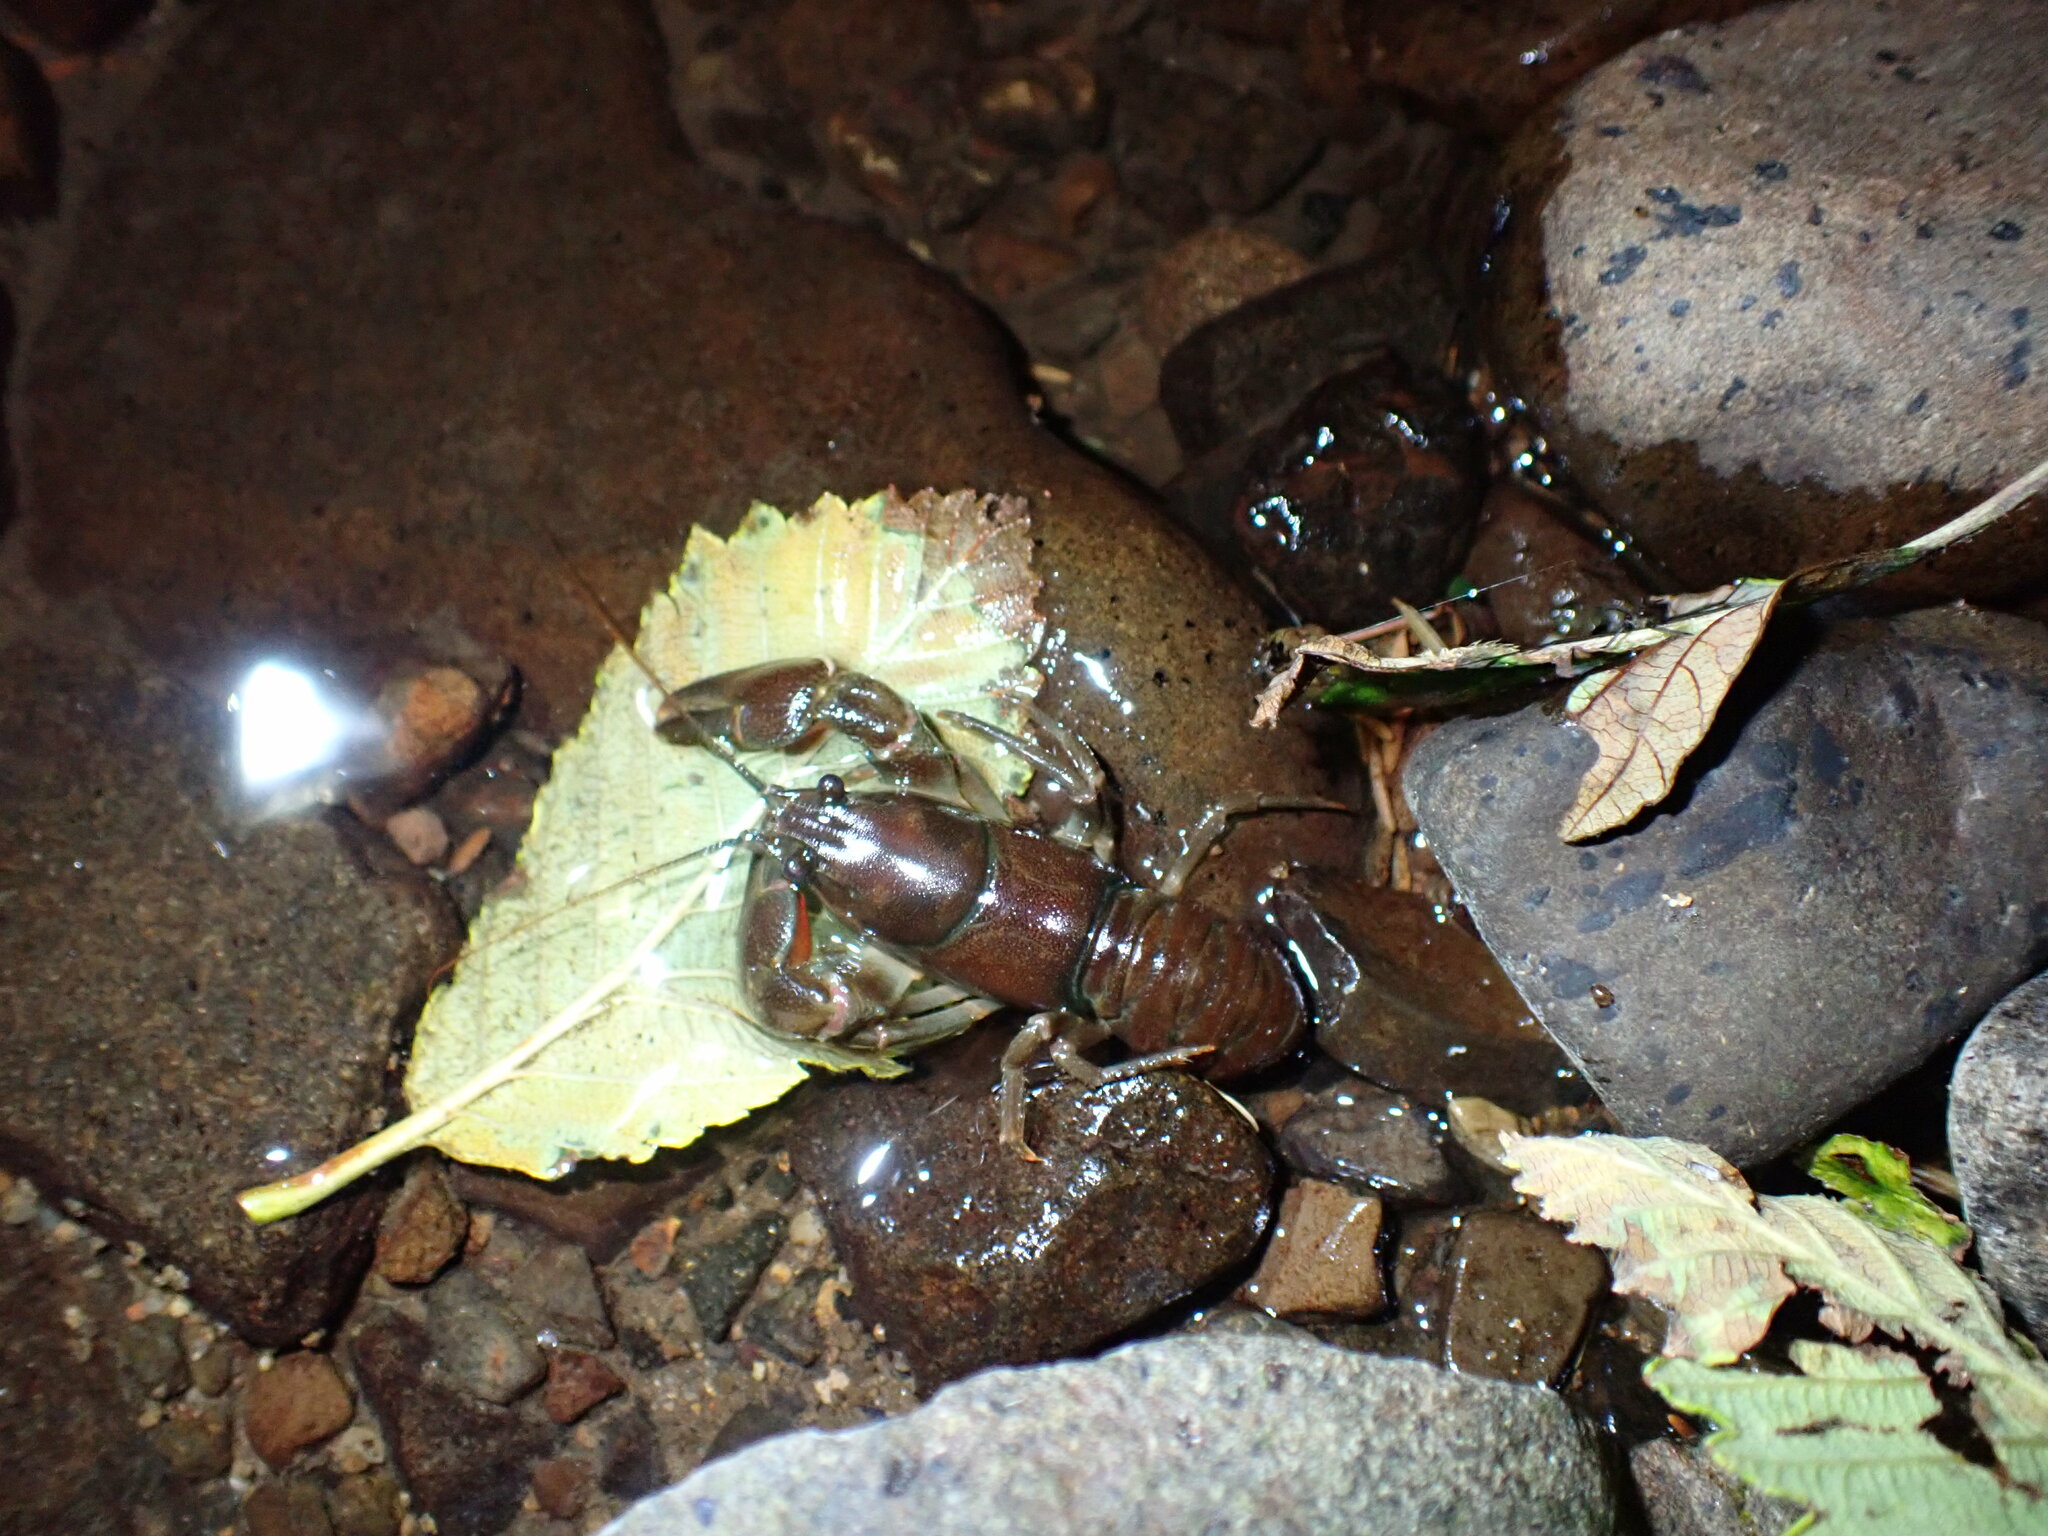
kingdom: Animalia
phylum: Arthropoda
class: Malacostraca
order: Decapoda
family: Astacidae
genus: Pacifastacus
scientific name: Pacifastacus leniusculus
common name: Signal crayfish
